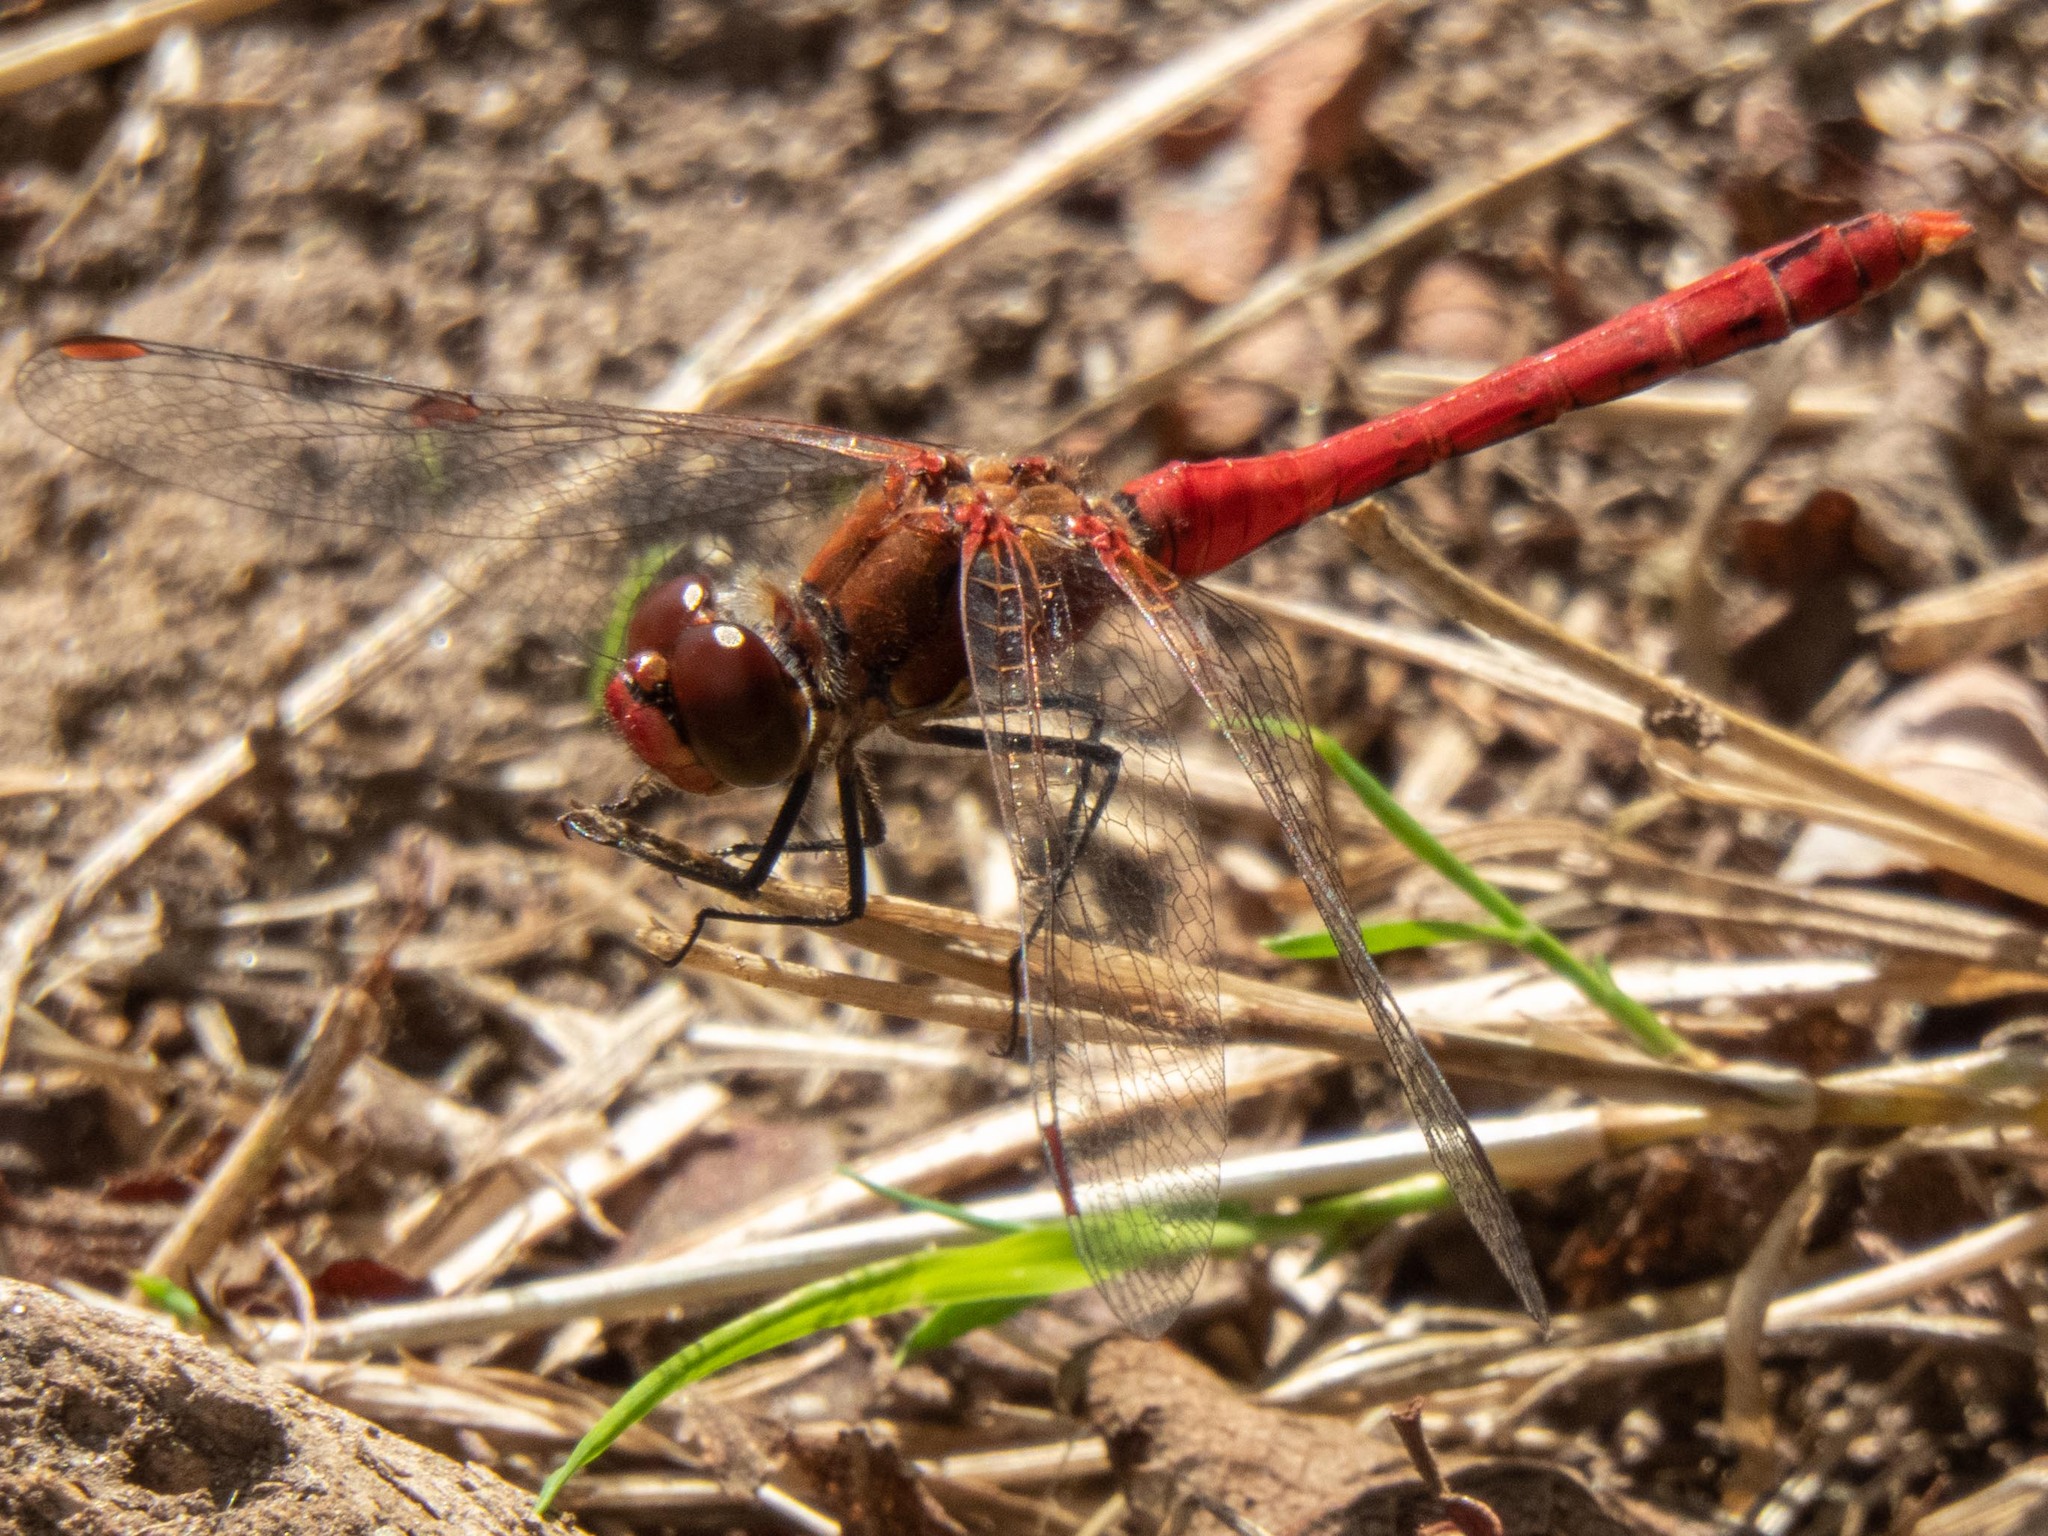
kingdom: Animalia
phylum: Arthropoda
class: Insecta
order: Odonata
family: Libellulidae
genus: Sympetrum
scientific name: Sympetrum sanguineum
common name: Ruddy darter
